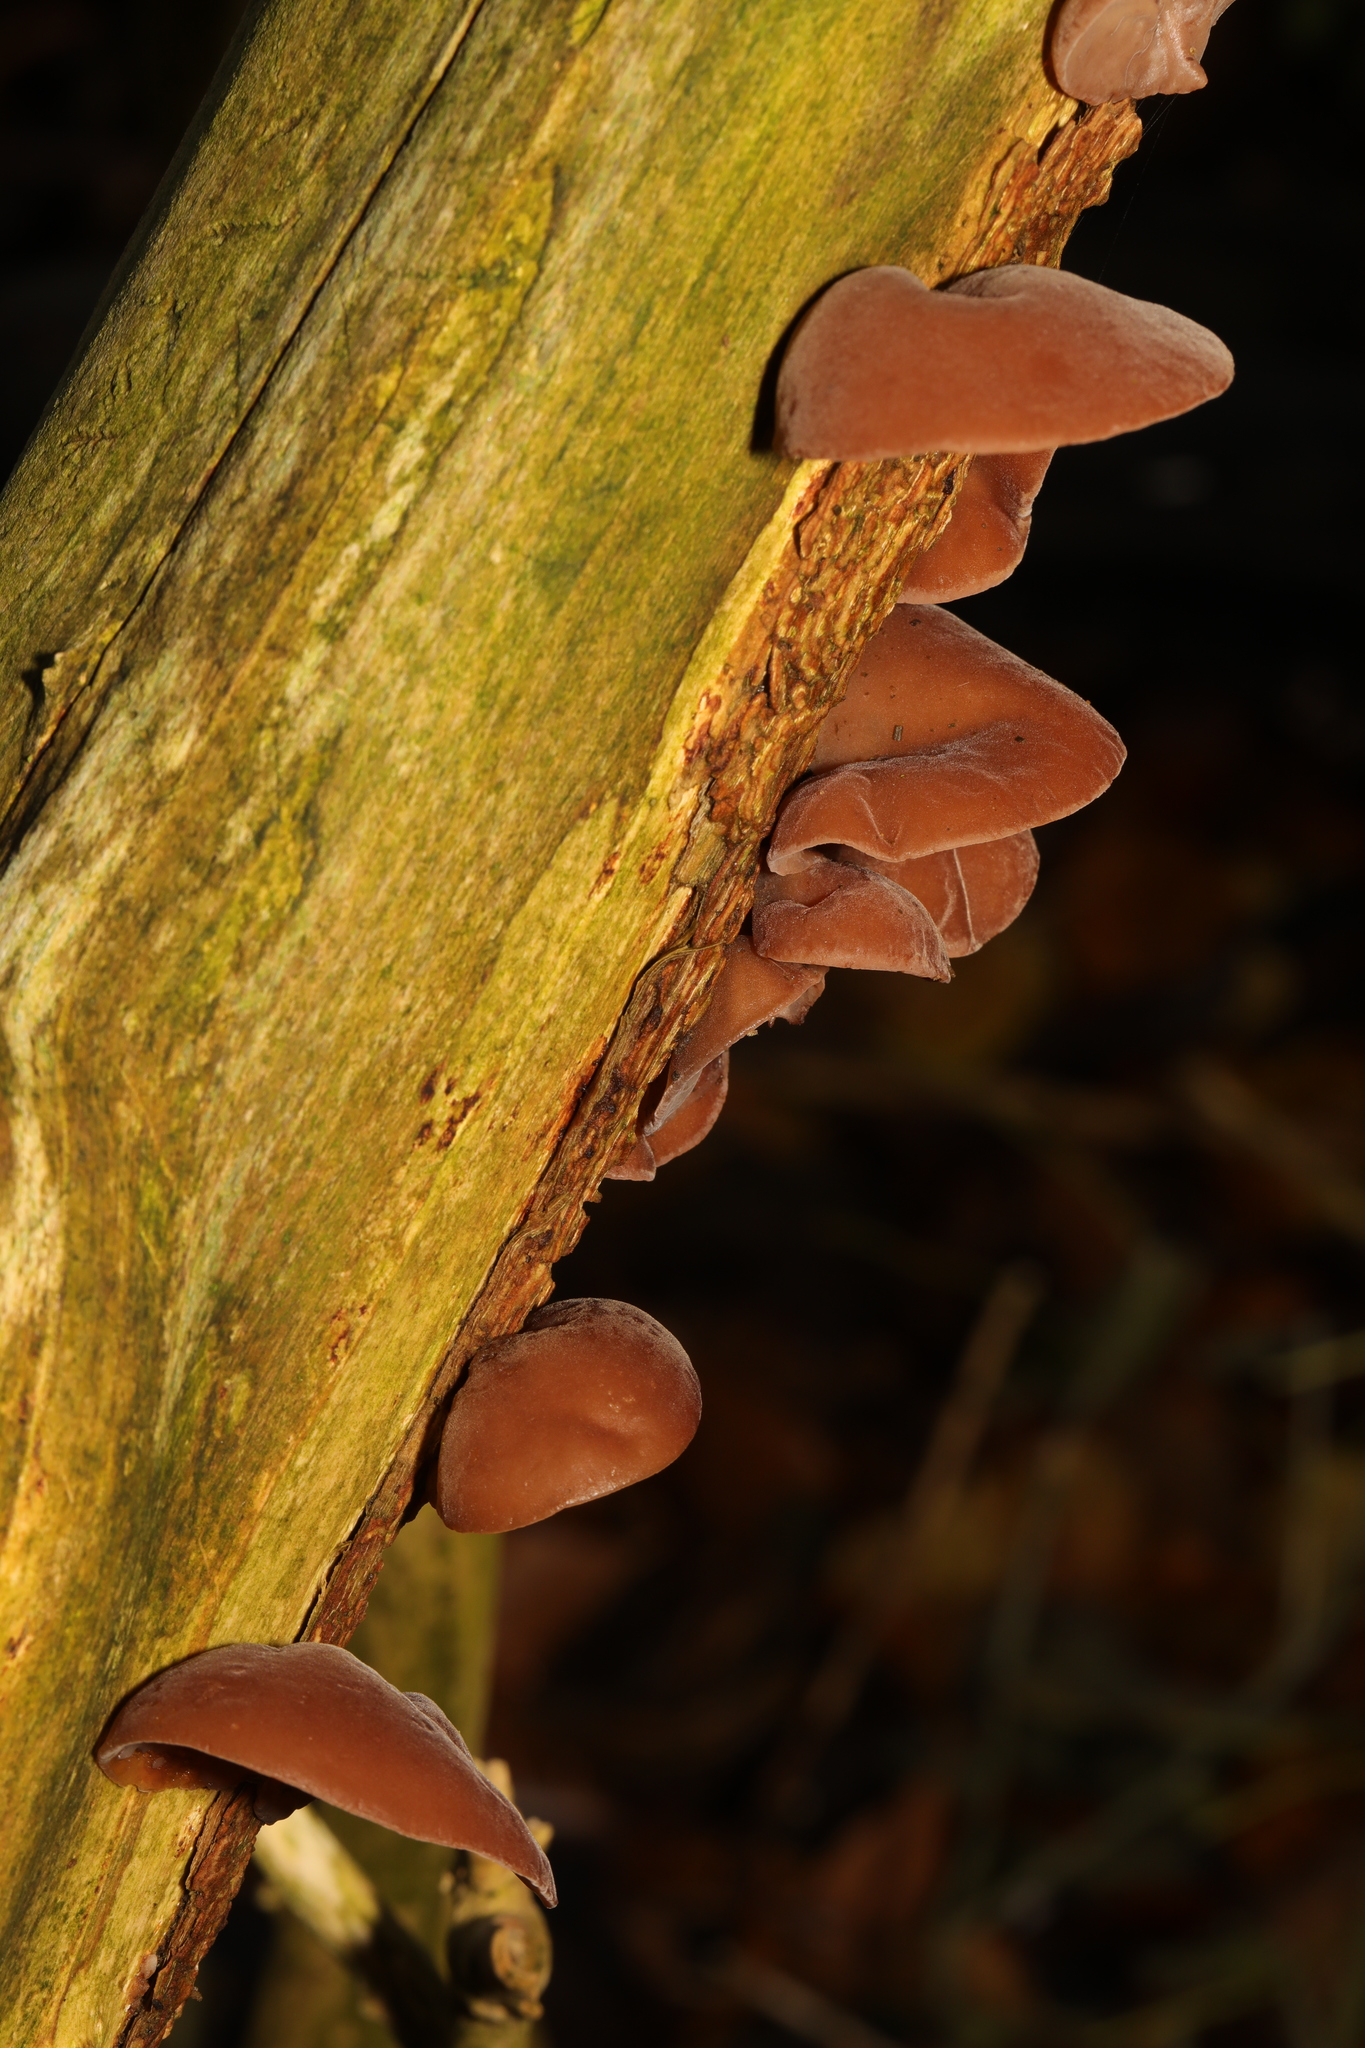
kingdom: Fungi
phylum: Basidiomycota
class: Agaricomycetes
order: Auriculariales
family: Auriculariaceae
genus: Auricularia
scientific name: Auricularia auricula-judae
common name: Jelly ear
